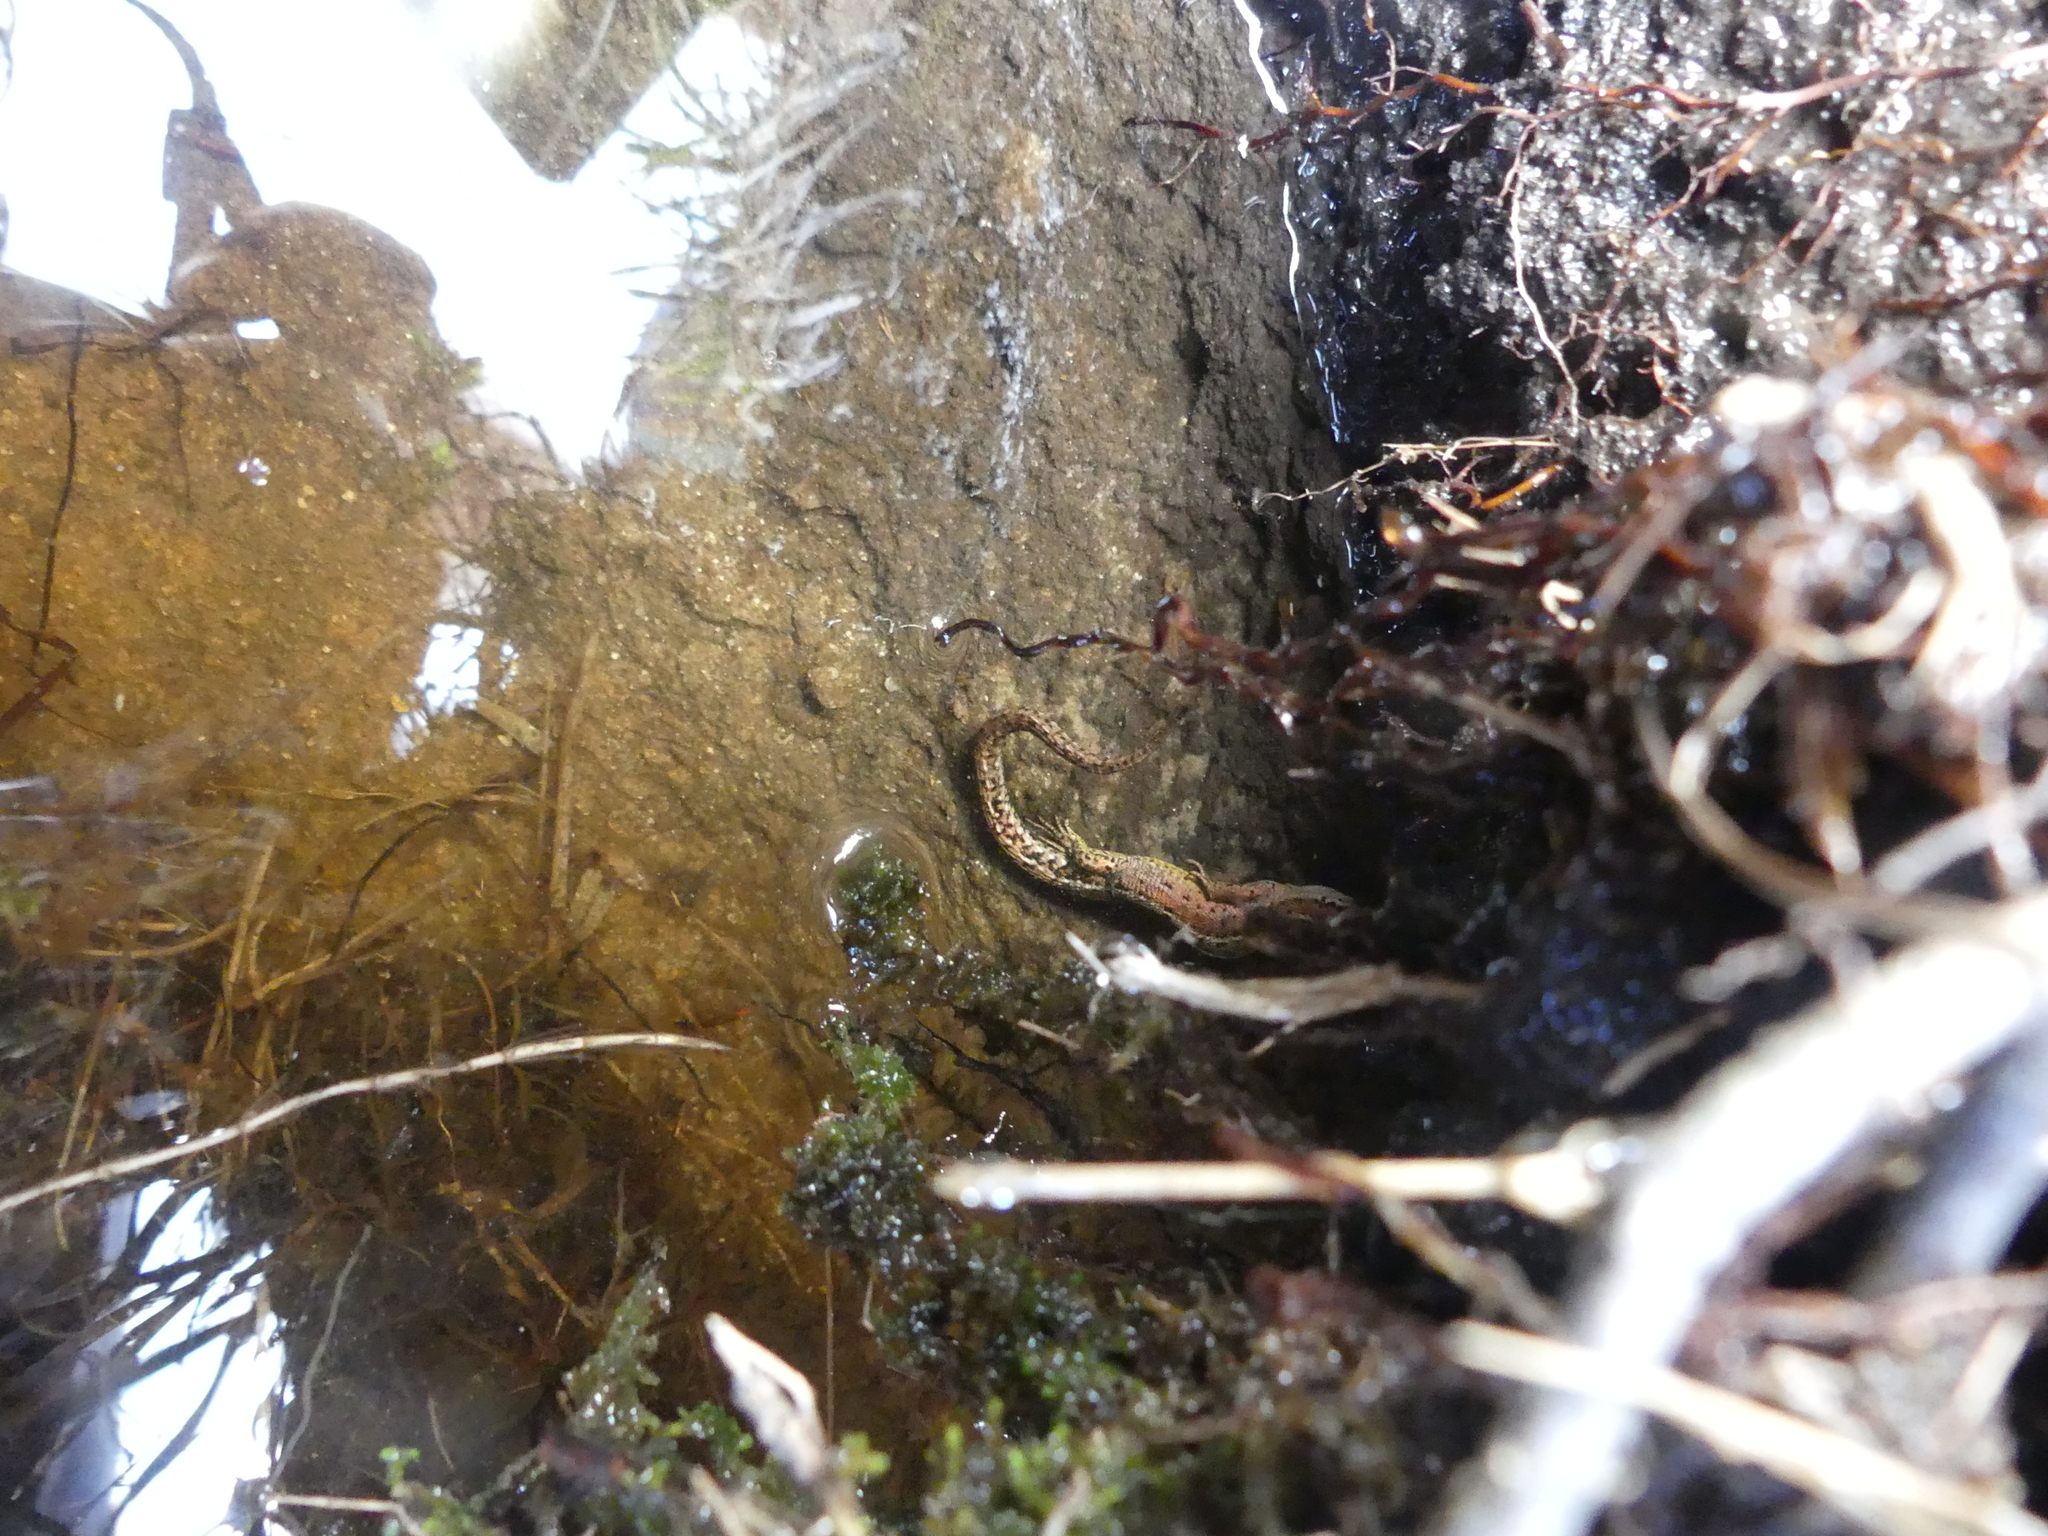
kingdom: Animalia
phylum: Chordata
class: Squamata
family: Lacertidae
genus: Zootoca
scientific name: Zootoca vivipara
